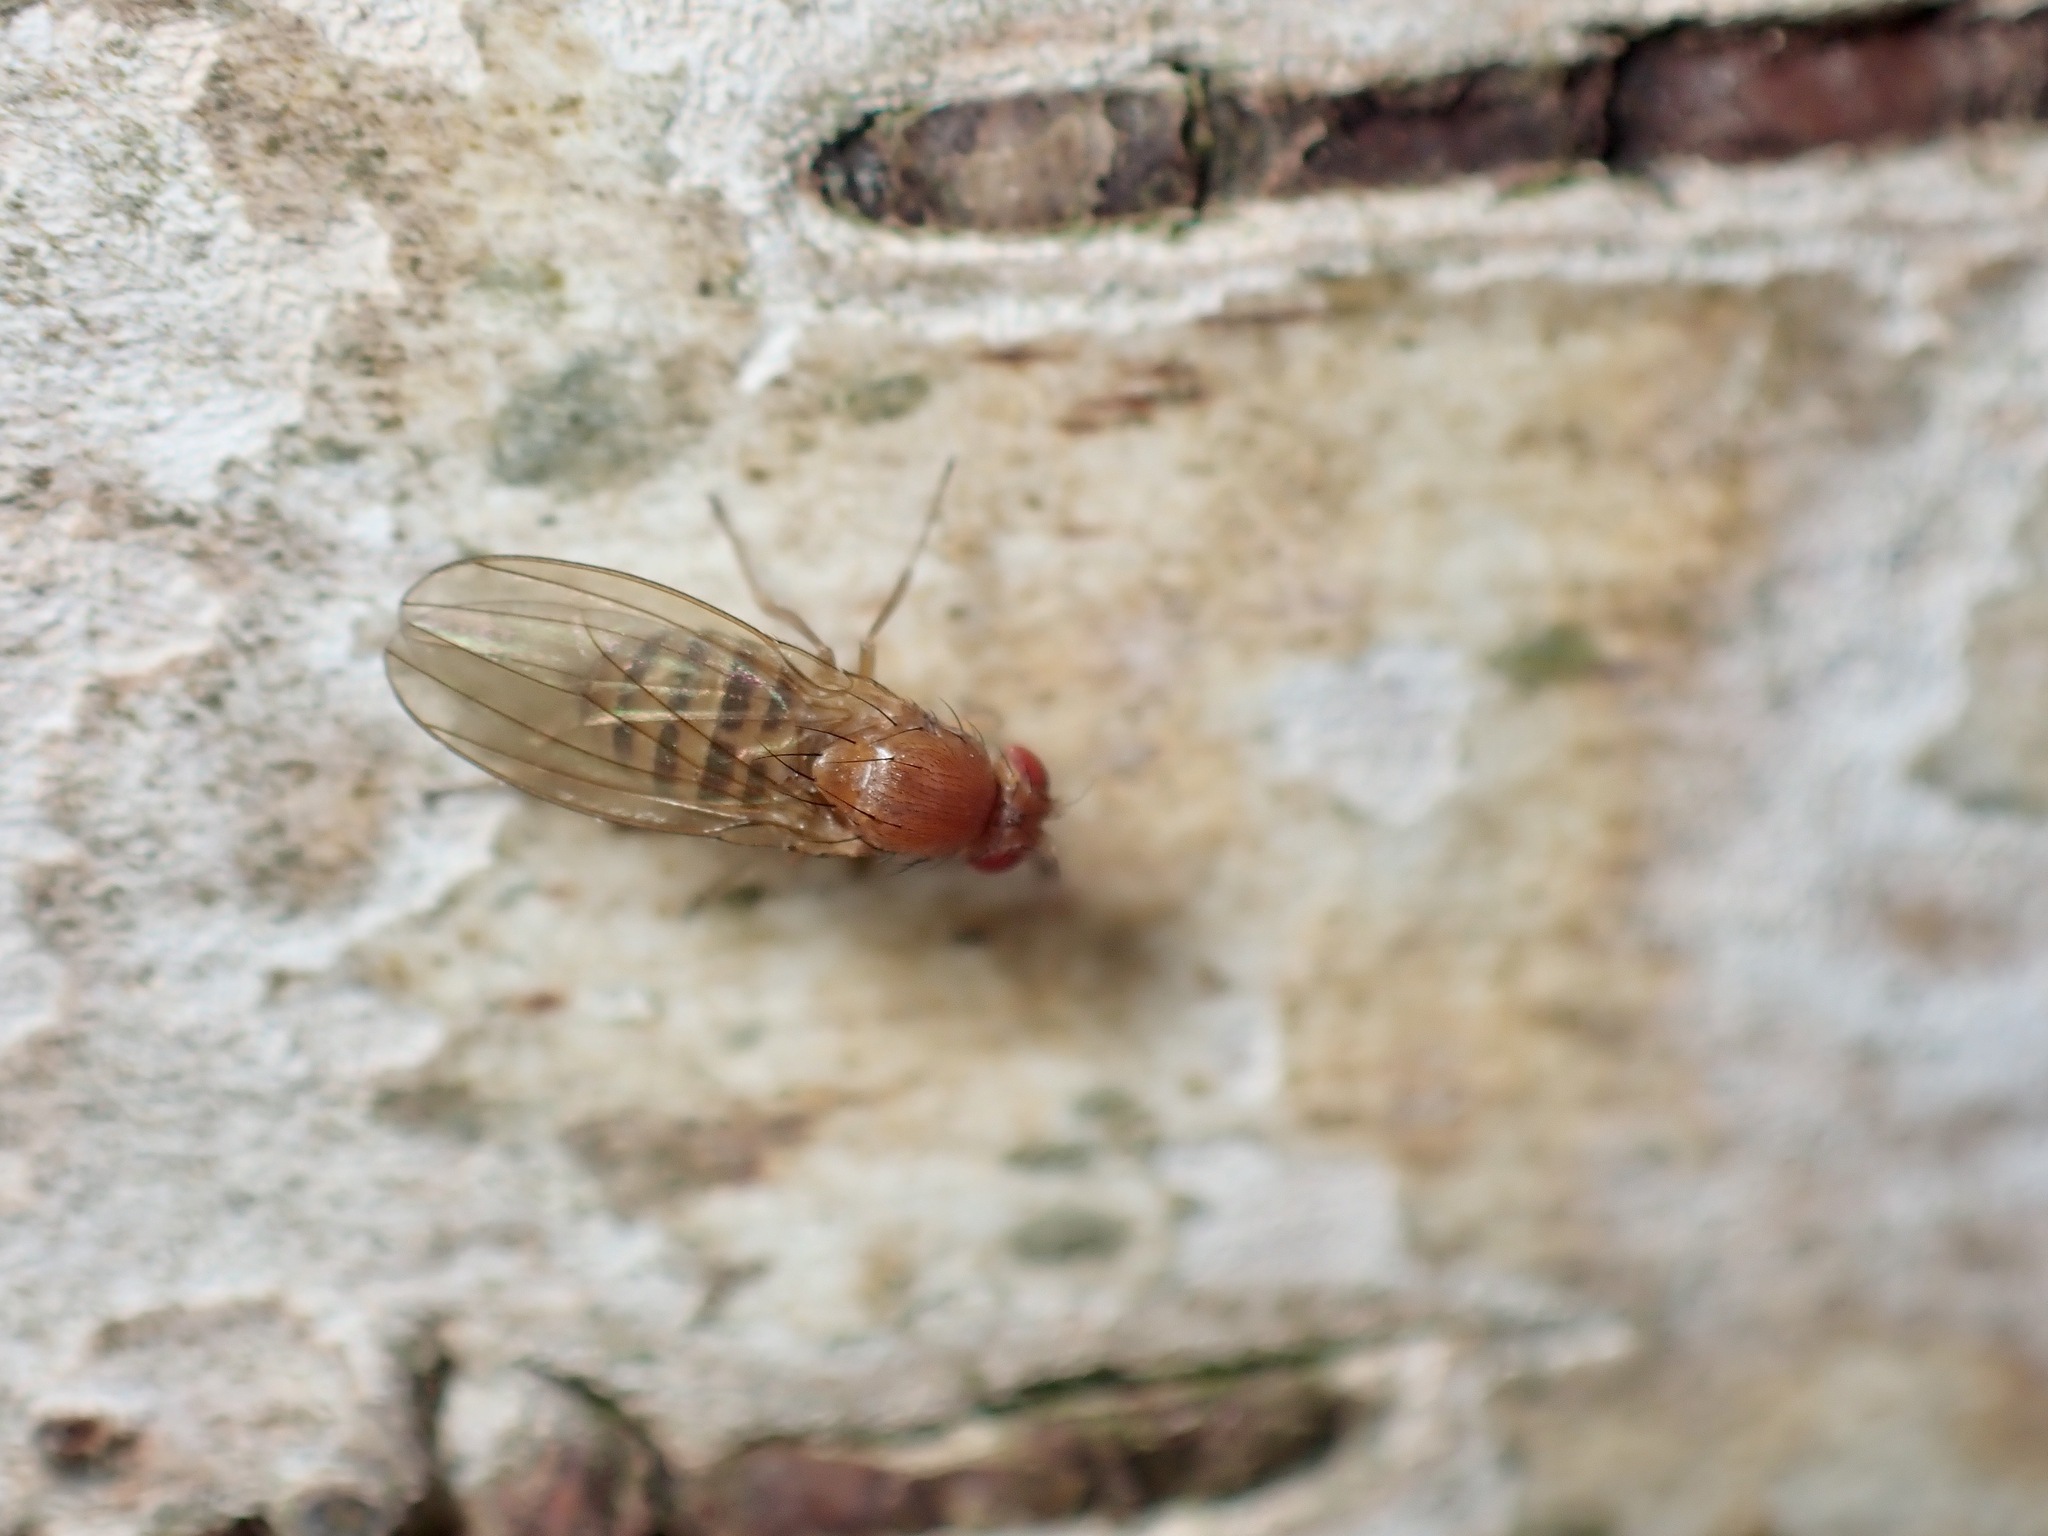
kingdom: Animalia
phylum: Arthropoda
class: Insecta
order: Diptera
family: Drosophilidae
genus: Hirtodrosophila
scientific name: Hirtodrosophila confusa
